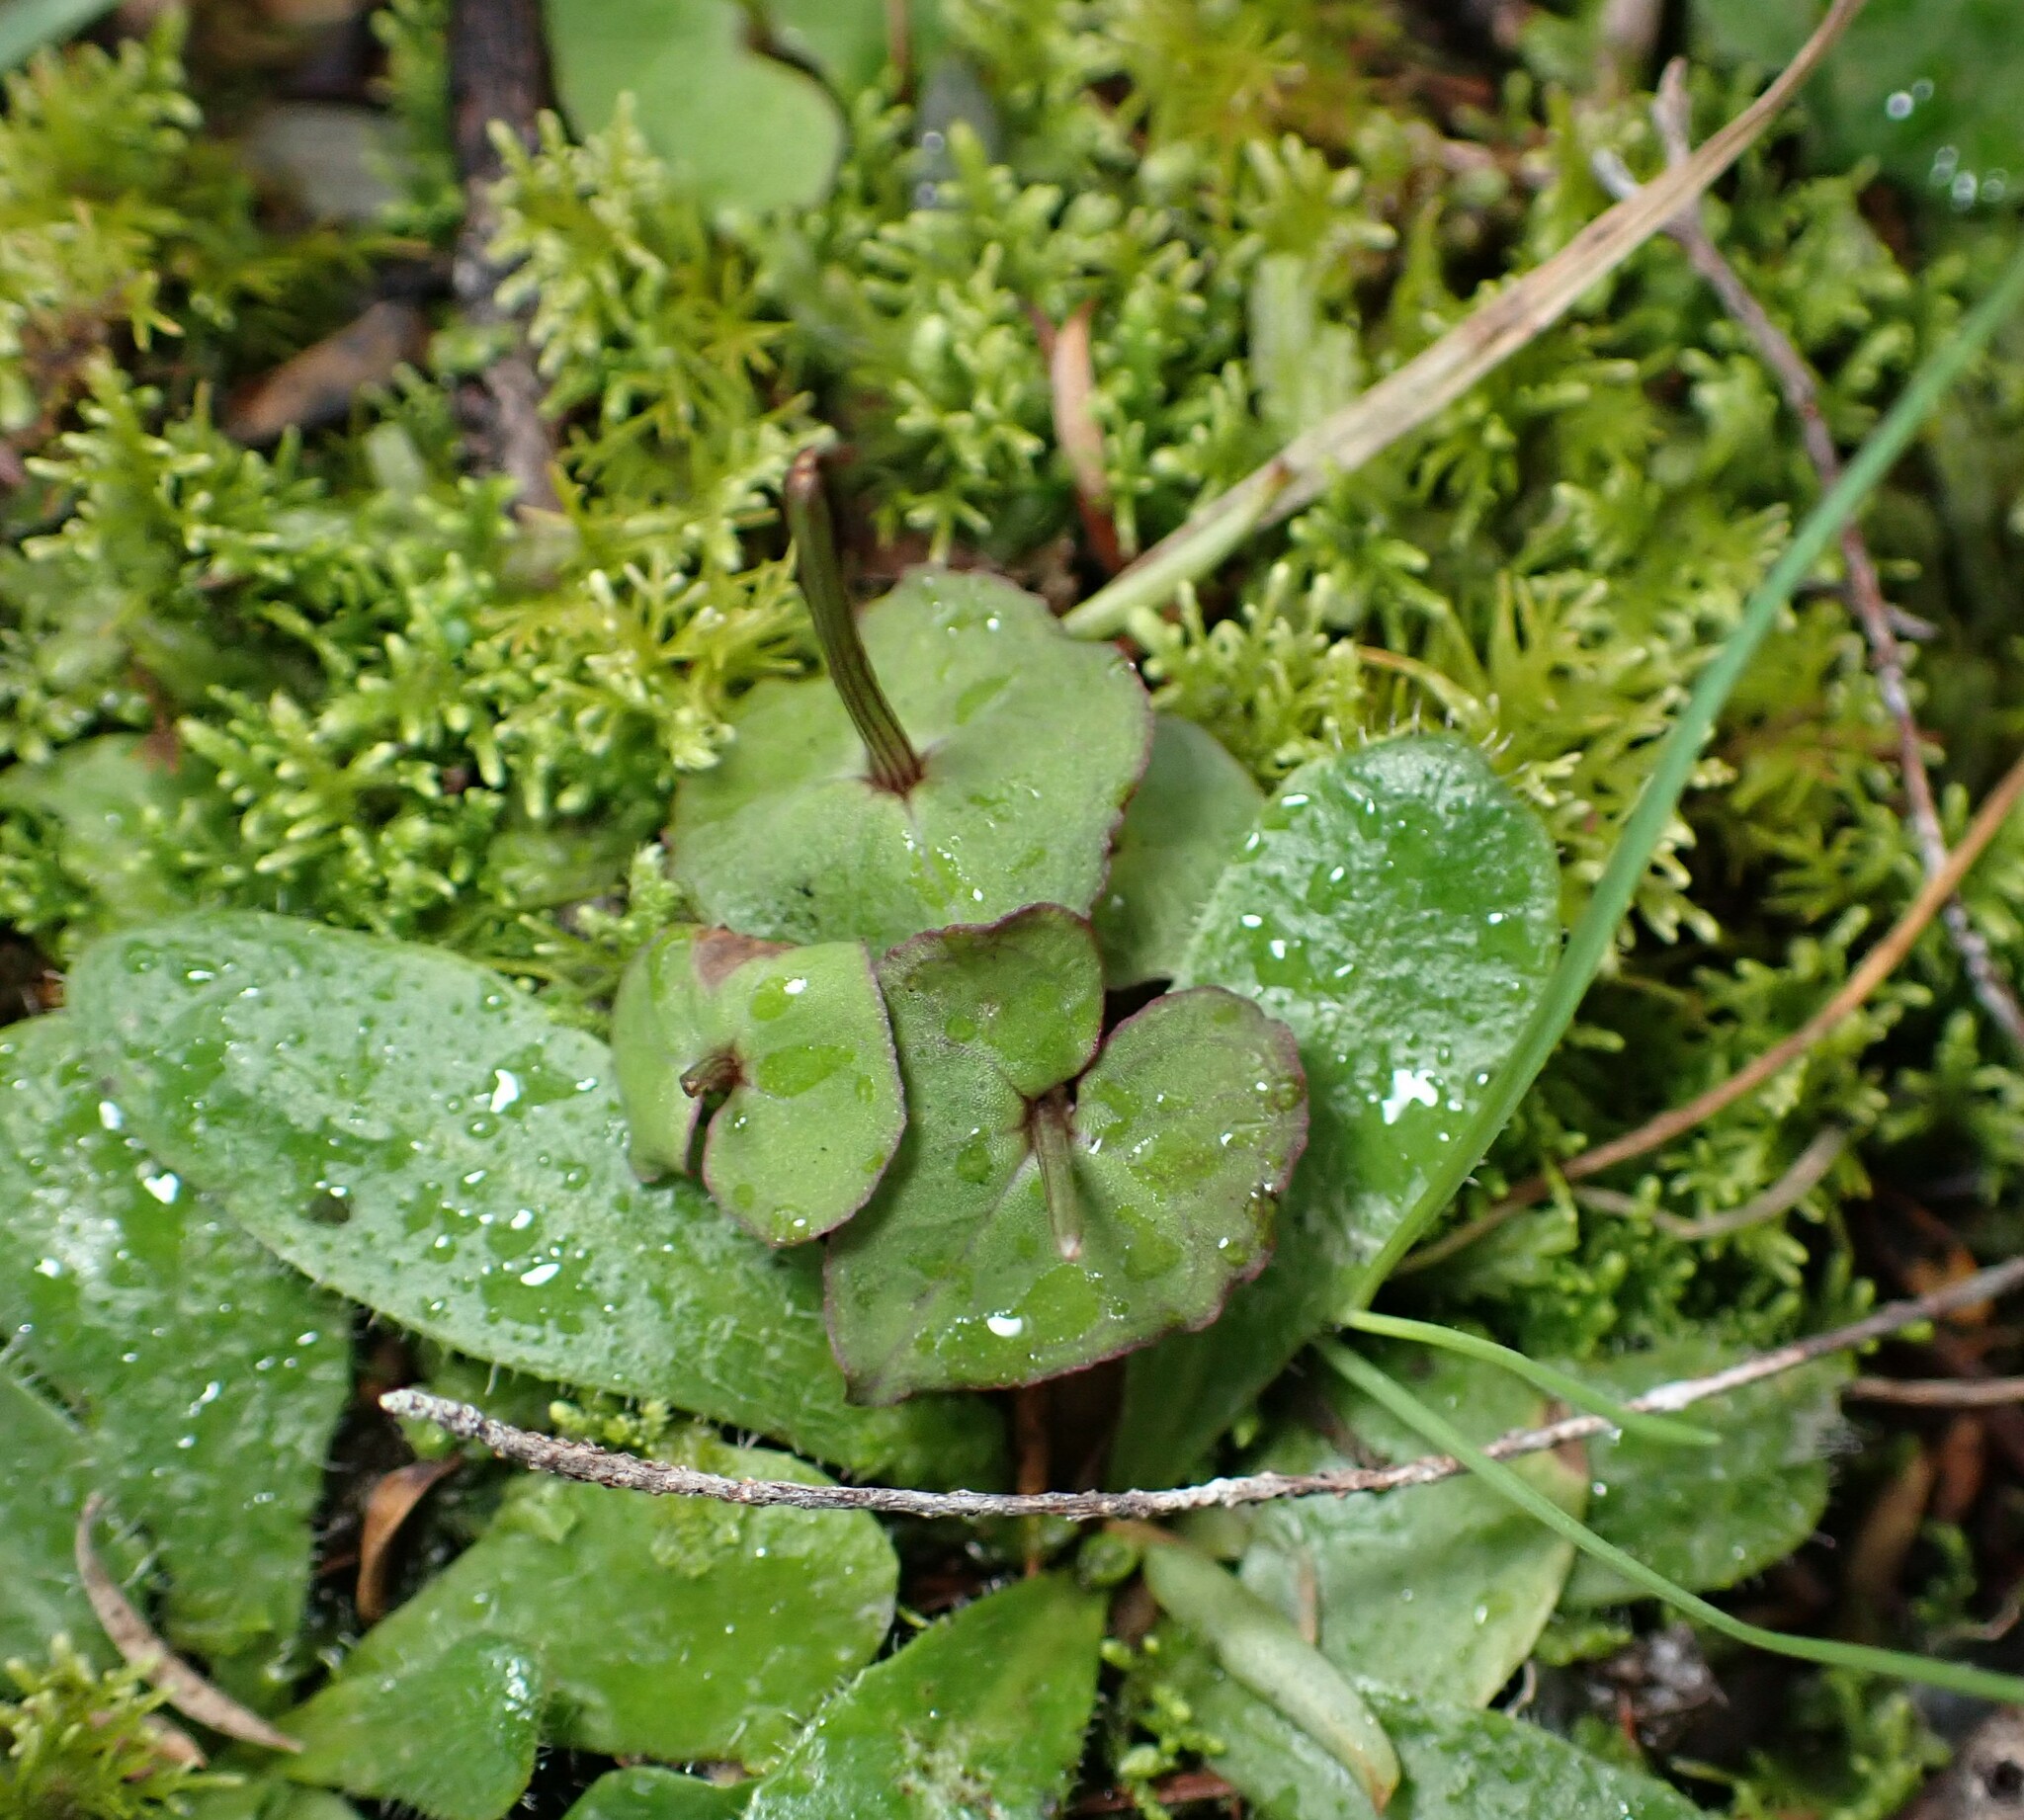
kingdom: Plantae
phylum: Tracheophyta
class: Liliopsida
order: Asparagales
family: Orchidaceae
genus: Acianthus
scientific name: Acianthus sinclairii
